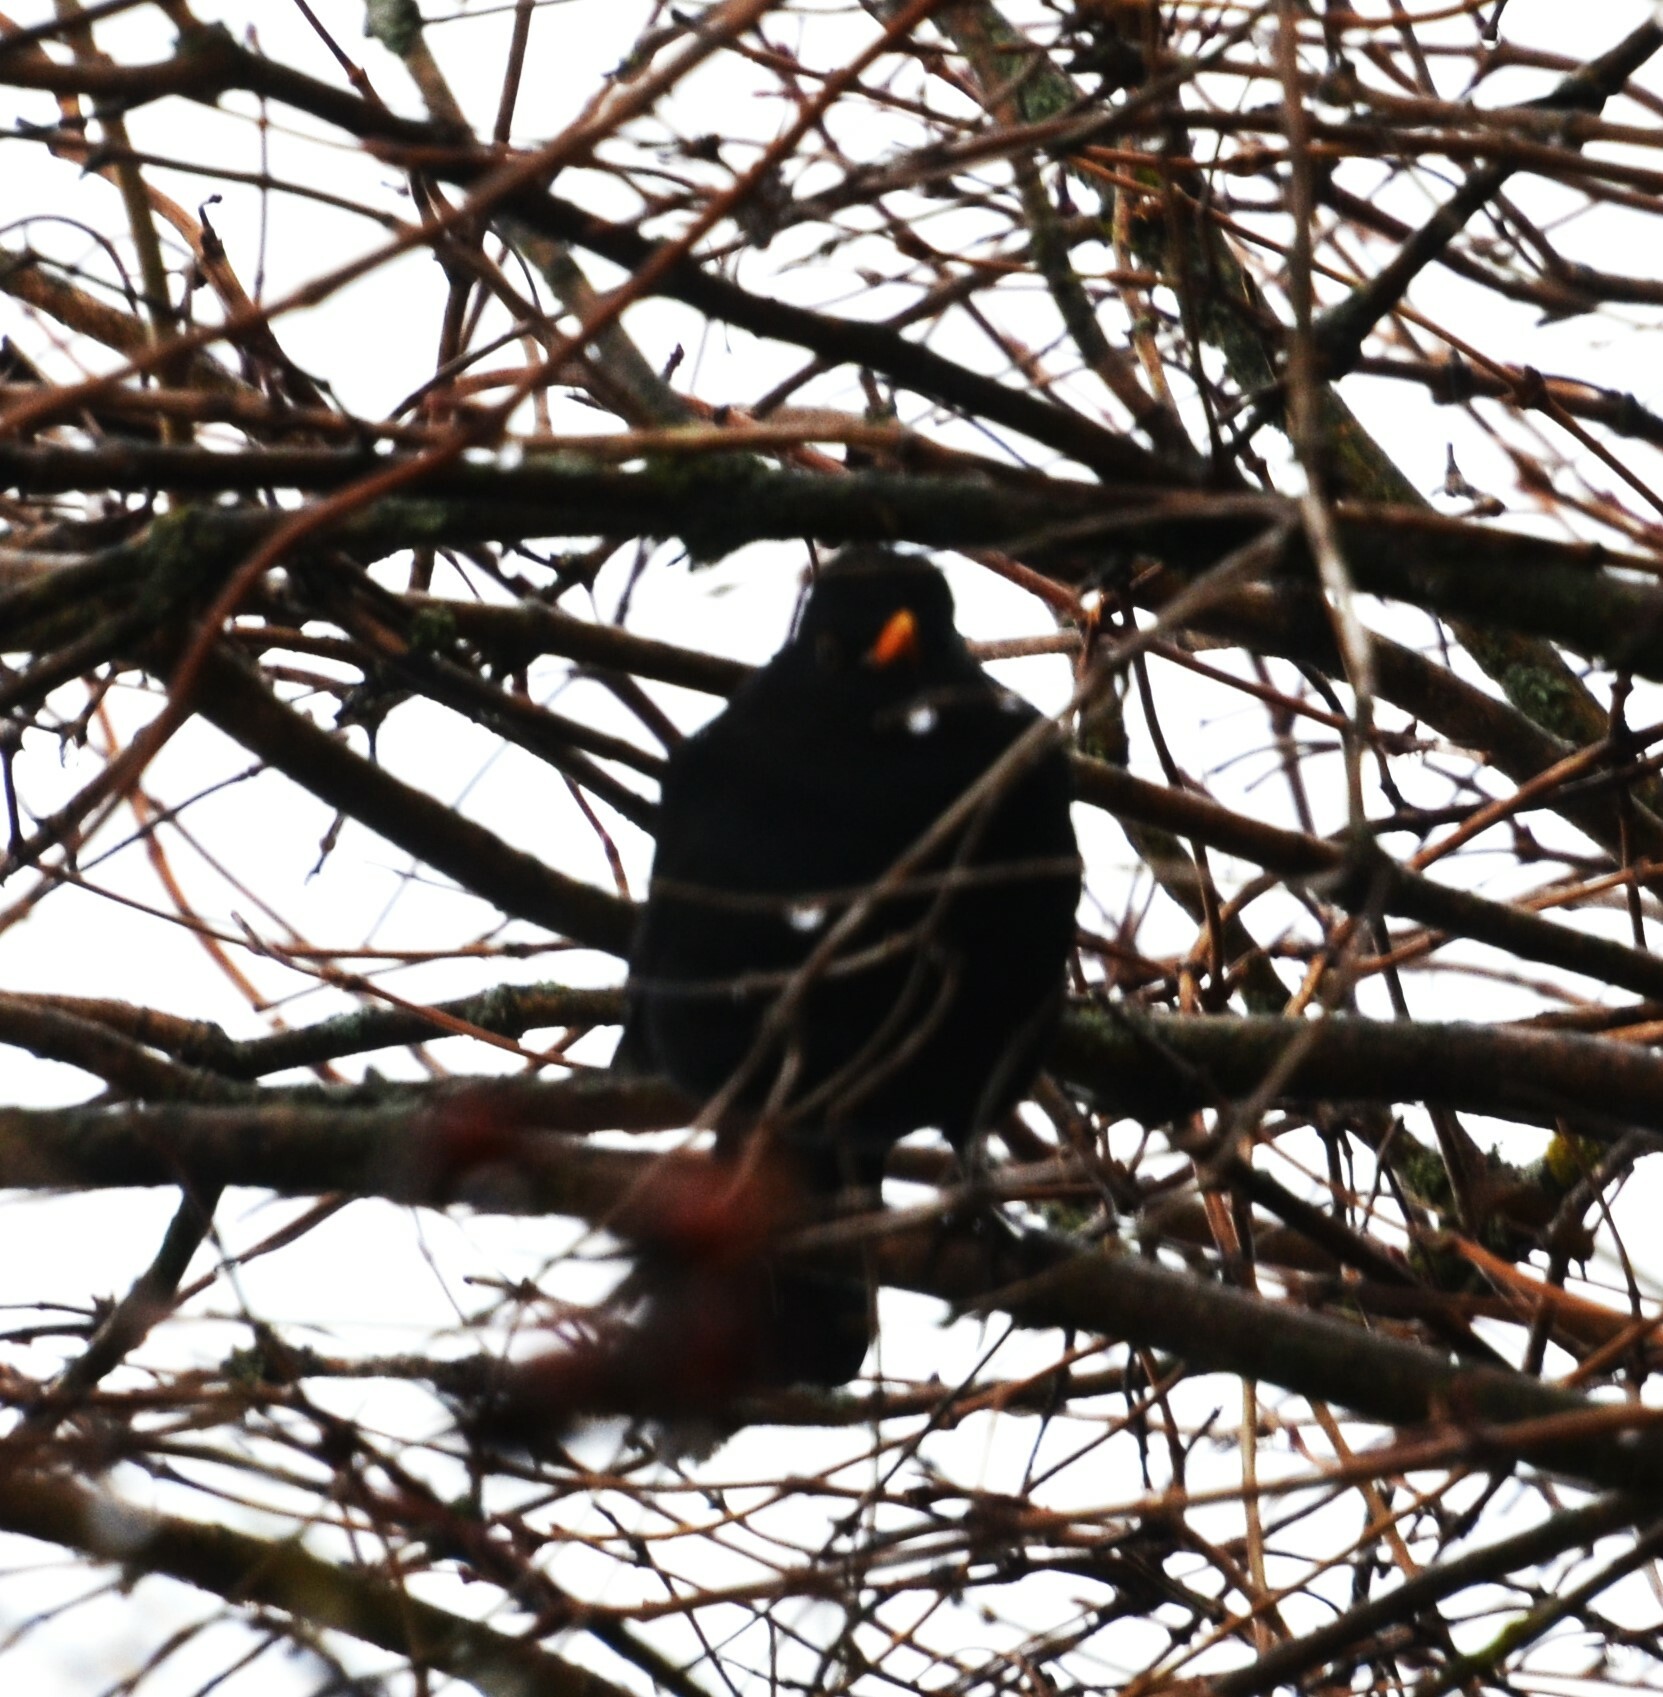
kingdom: Animalia
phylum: Chordata
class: Aves
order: Passeriformes
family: Turdidae
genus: Turdus
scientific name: Turdus merula
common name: Common blackbird
